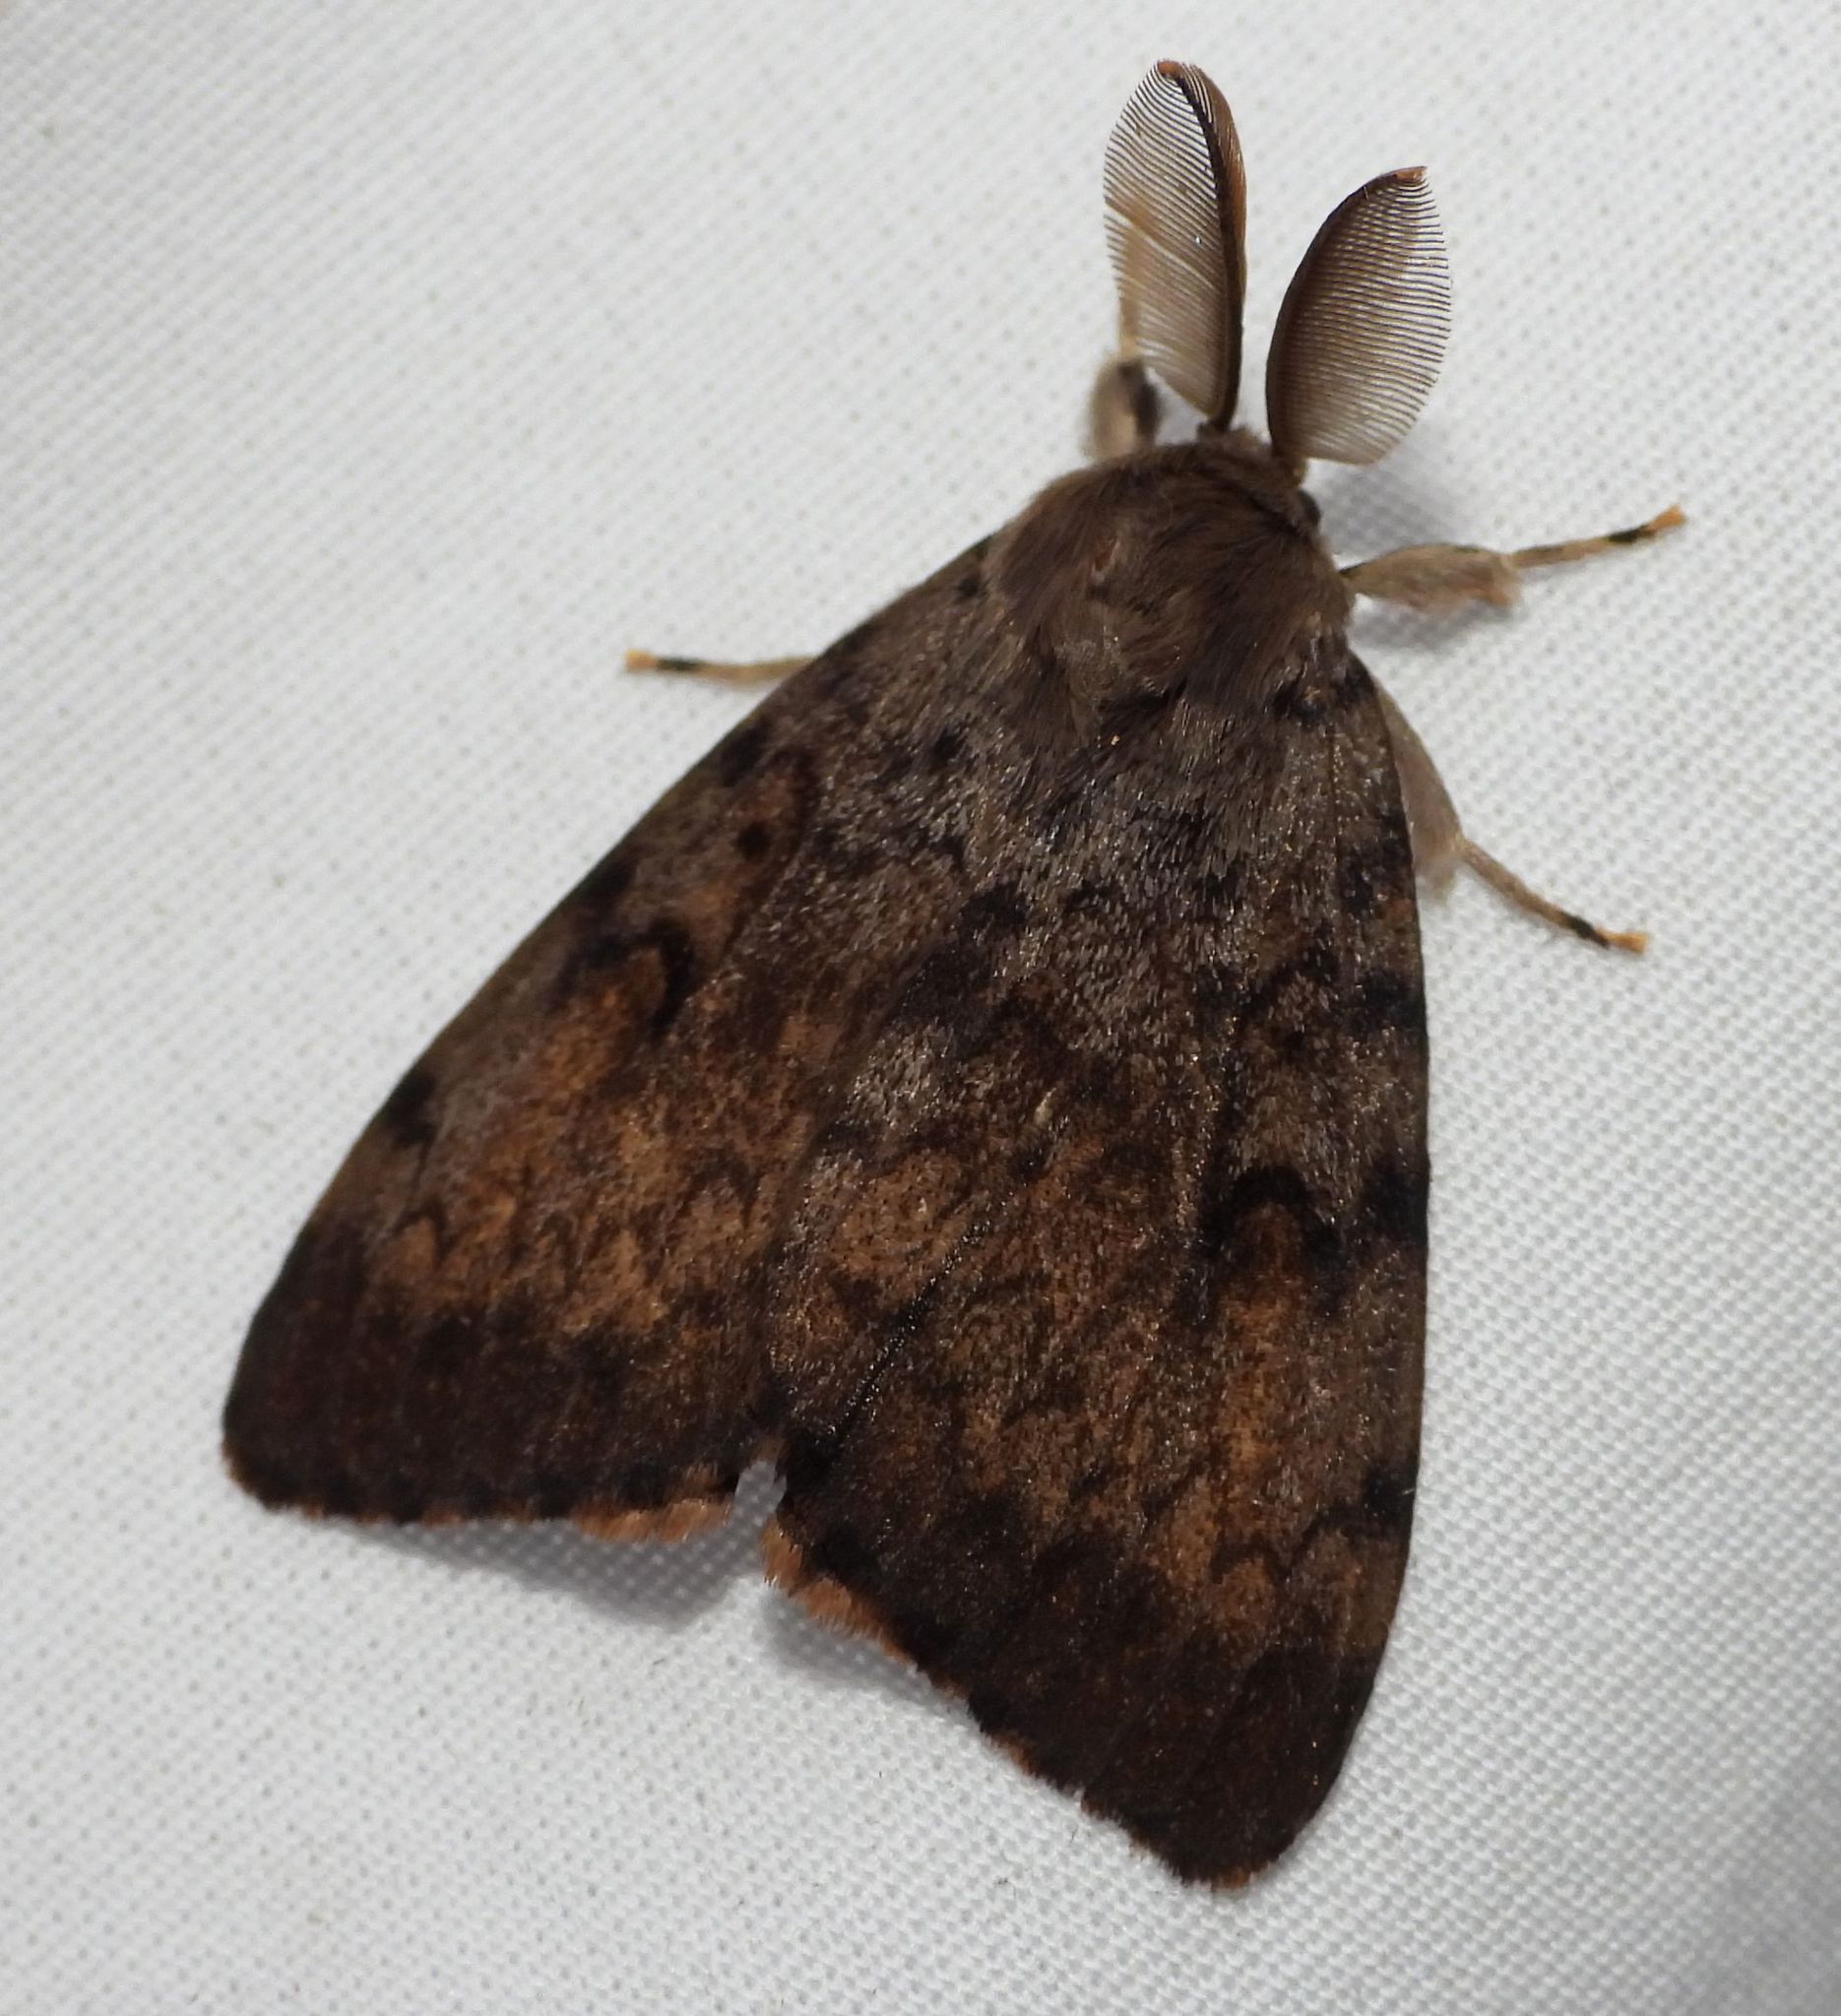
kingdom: Animalia
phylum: Arthropoda
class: Insecta
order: Lepidoptera
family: Erebidae
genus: Lymantria
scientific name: Lymantria dispar
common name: Gypsy moth
